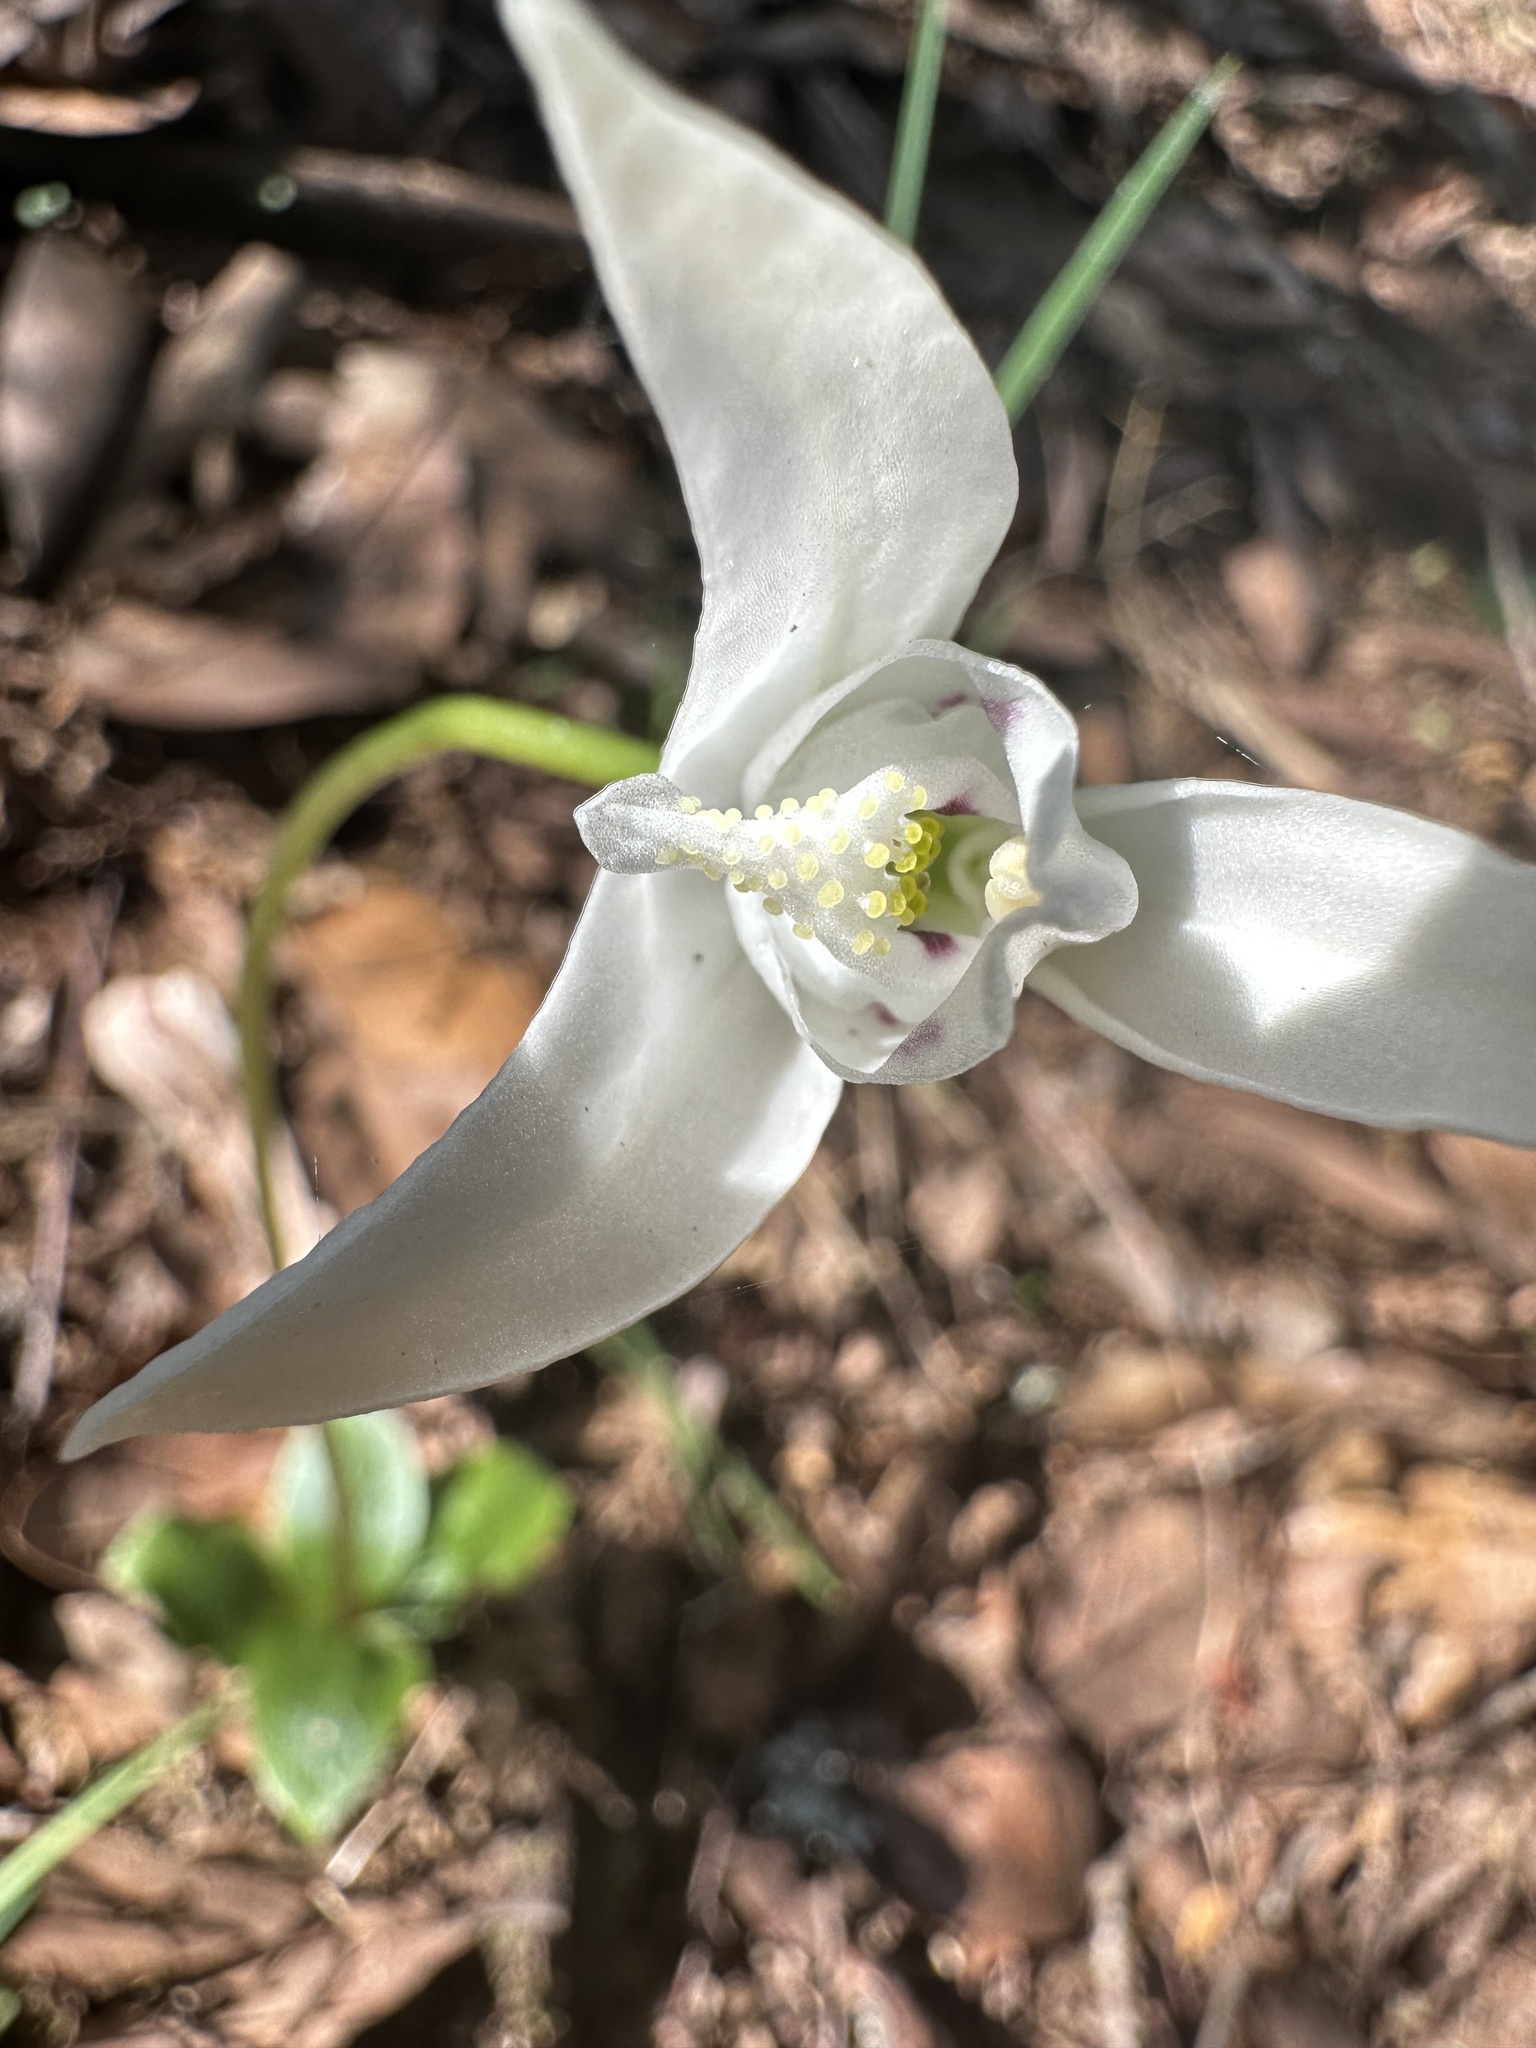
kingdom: Plantae
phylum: Tracheophyta
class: Liliopsida
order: Asparagales
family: Orchidaceae
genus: Codonorchis
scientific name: Codonorchis lessonii
